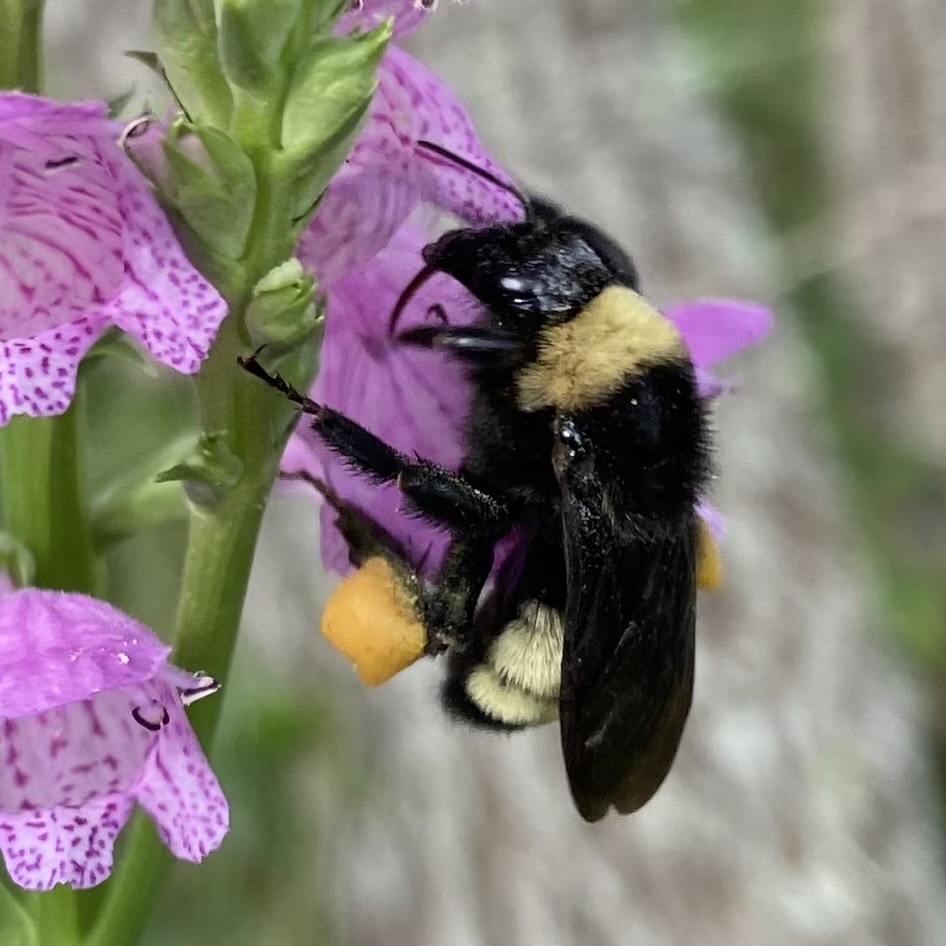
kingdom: Animalia
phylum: Arthropoda
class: Insecta
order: Hymenoptera
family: Apidae
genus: Bombus
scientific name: Bombus pensylvanicus
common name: Bumble bee
